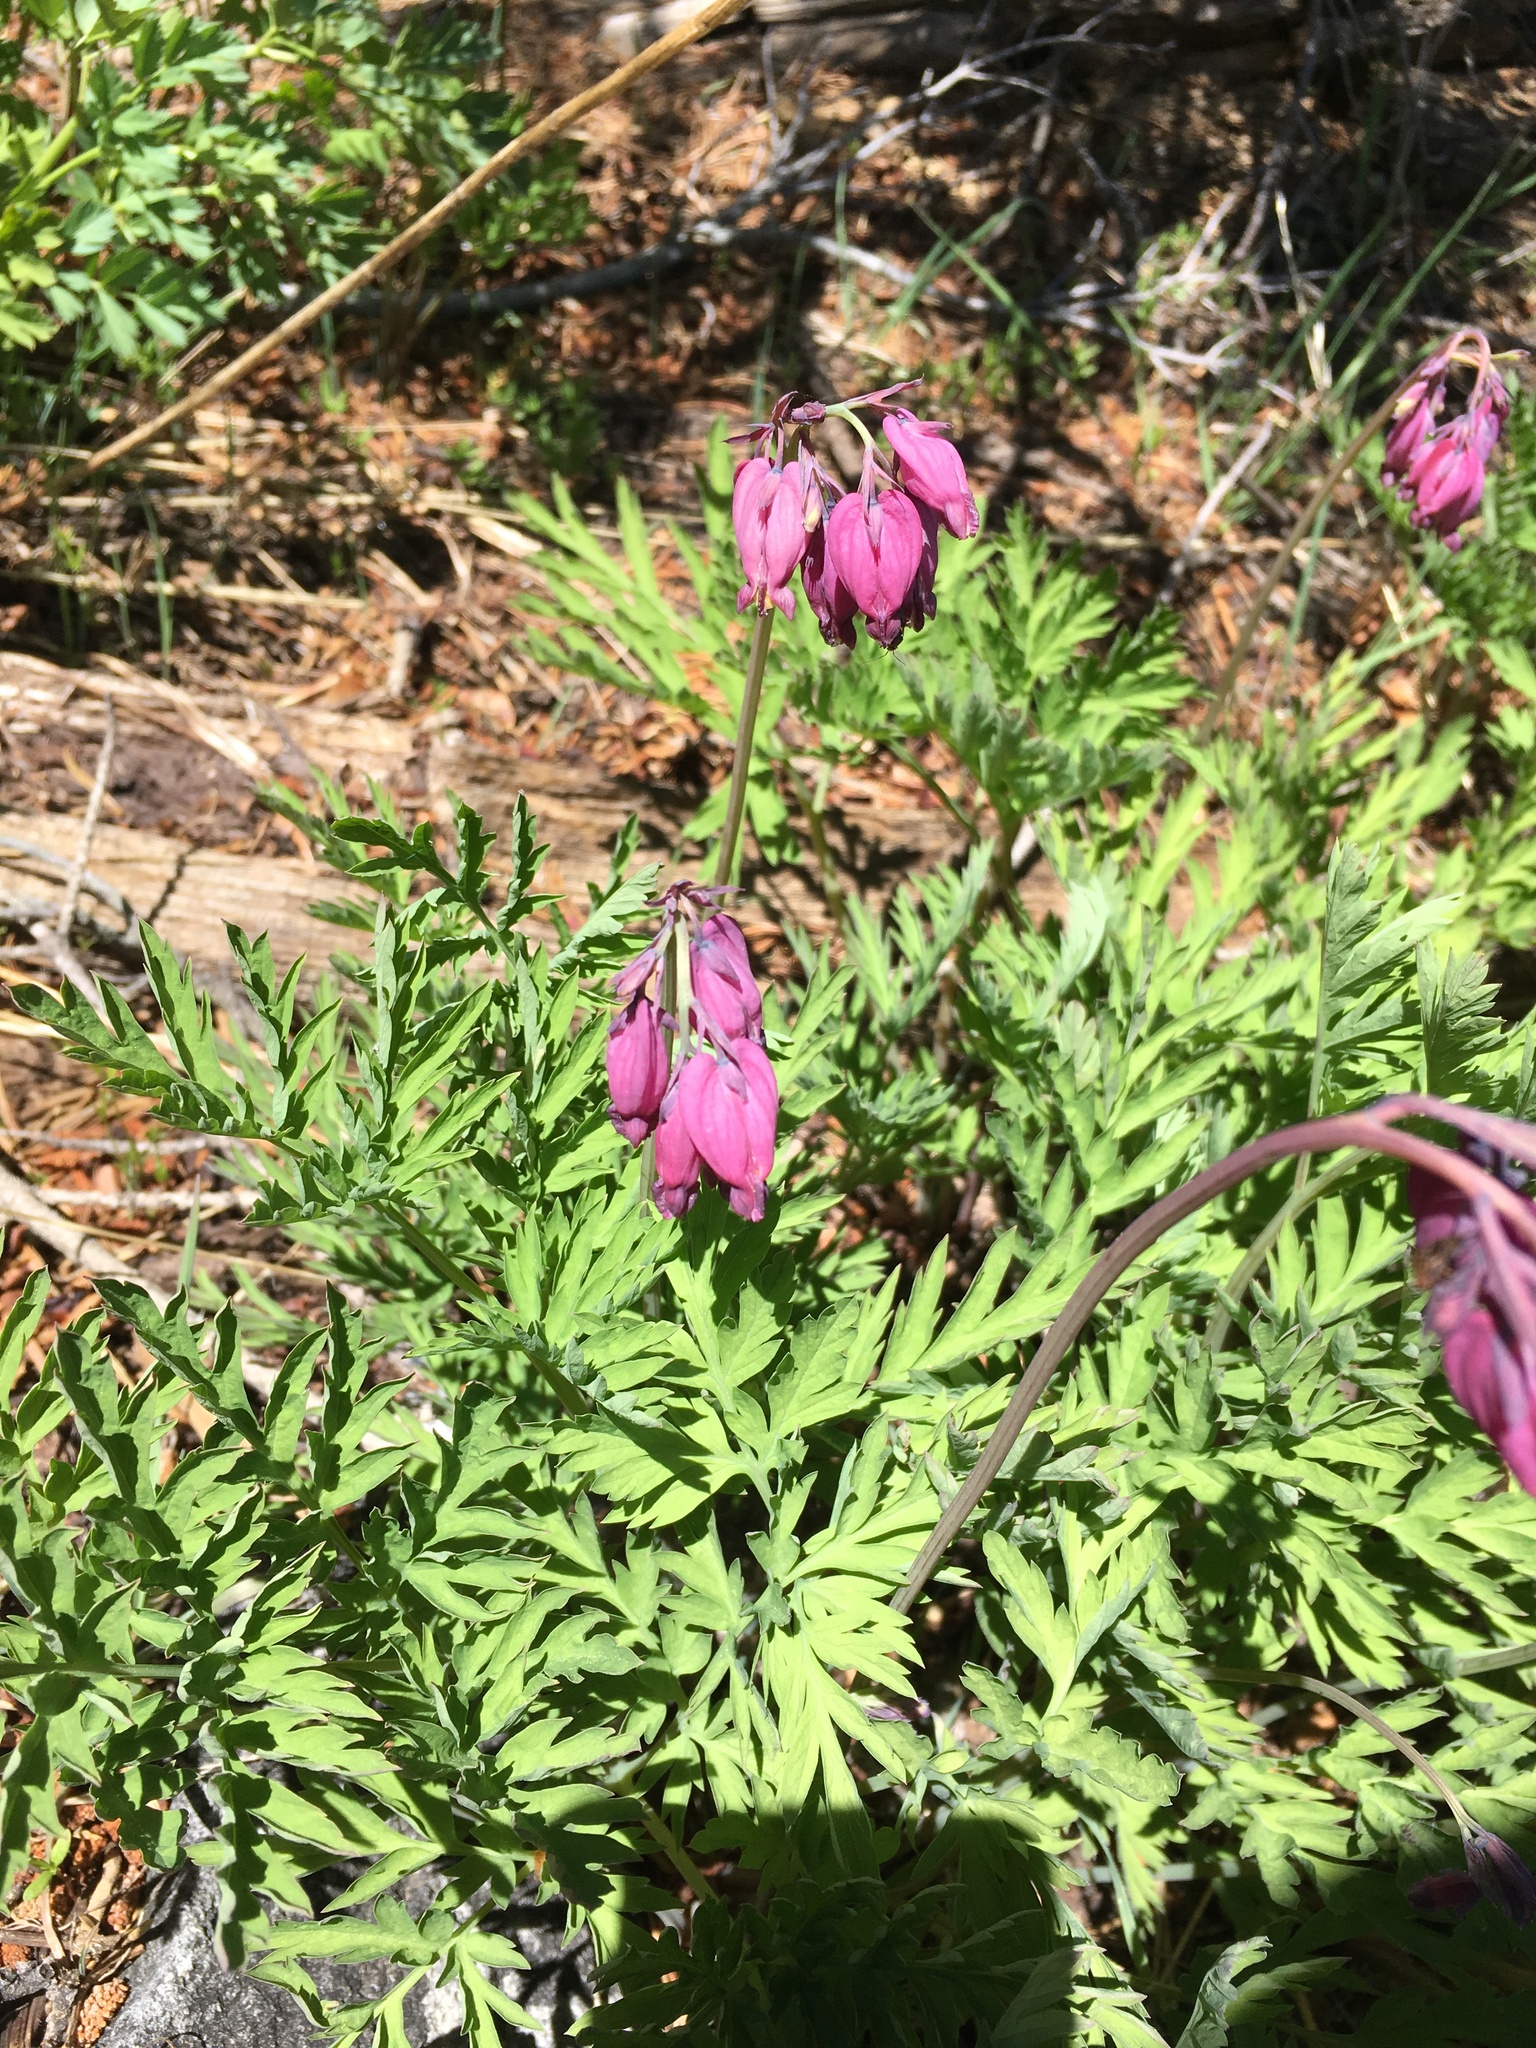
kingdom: Plantae
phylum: Tracheophyta
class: Magnoliopsida
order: Ranunculales
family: Papaveraceae
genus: Dicentra
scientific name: Dicentra formosa
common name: Bleeding-heart
